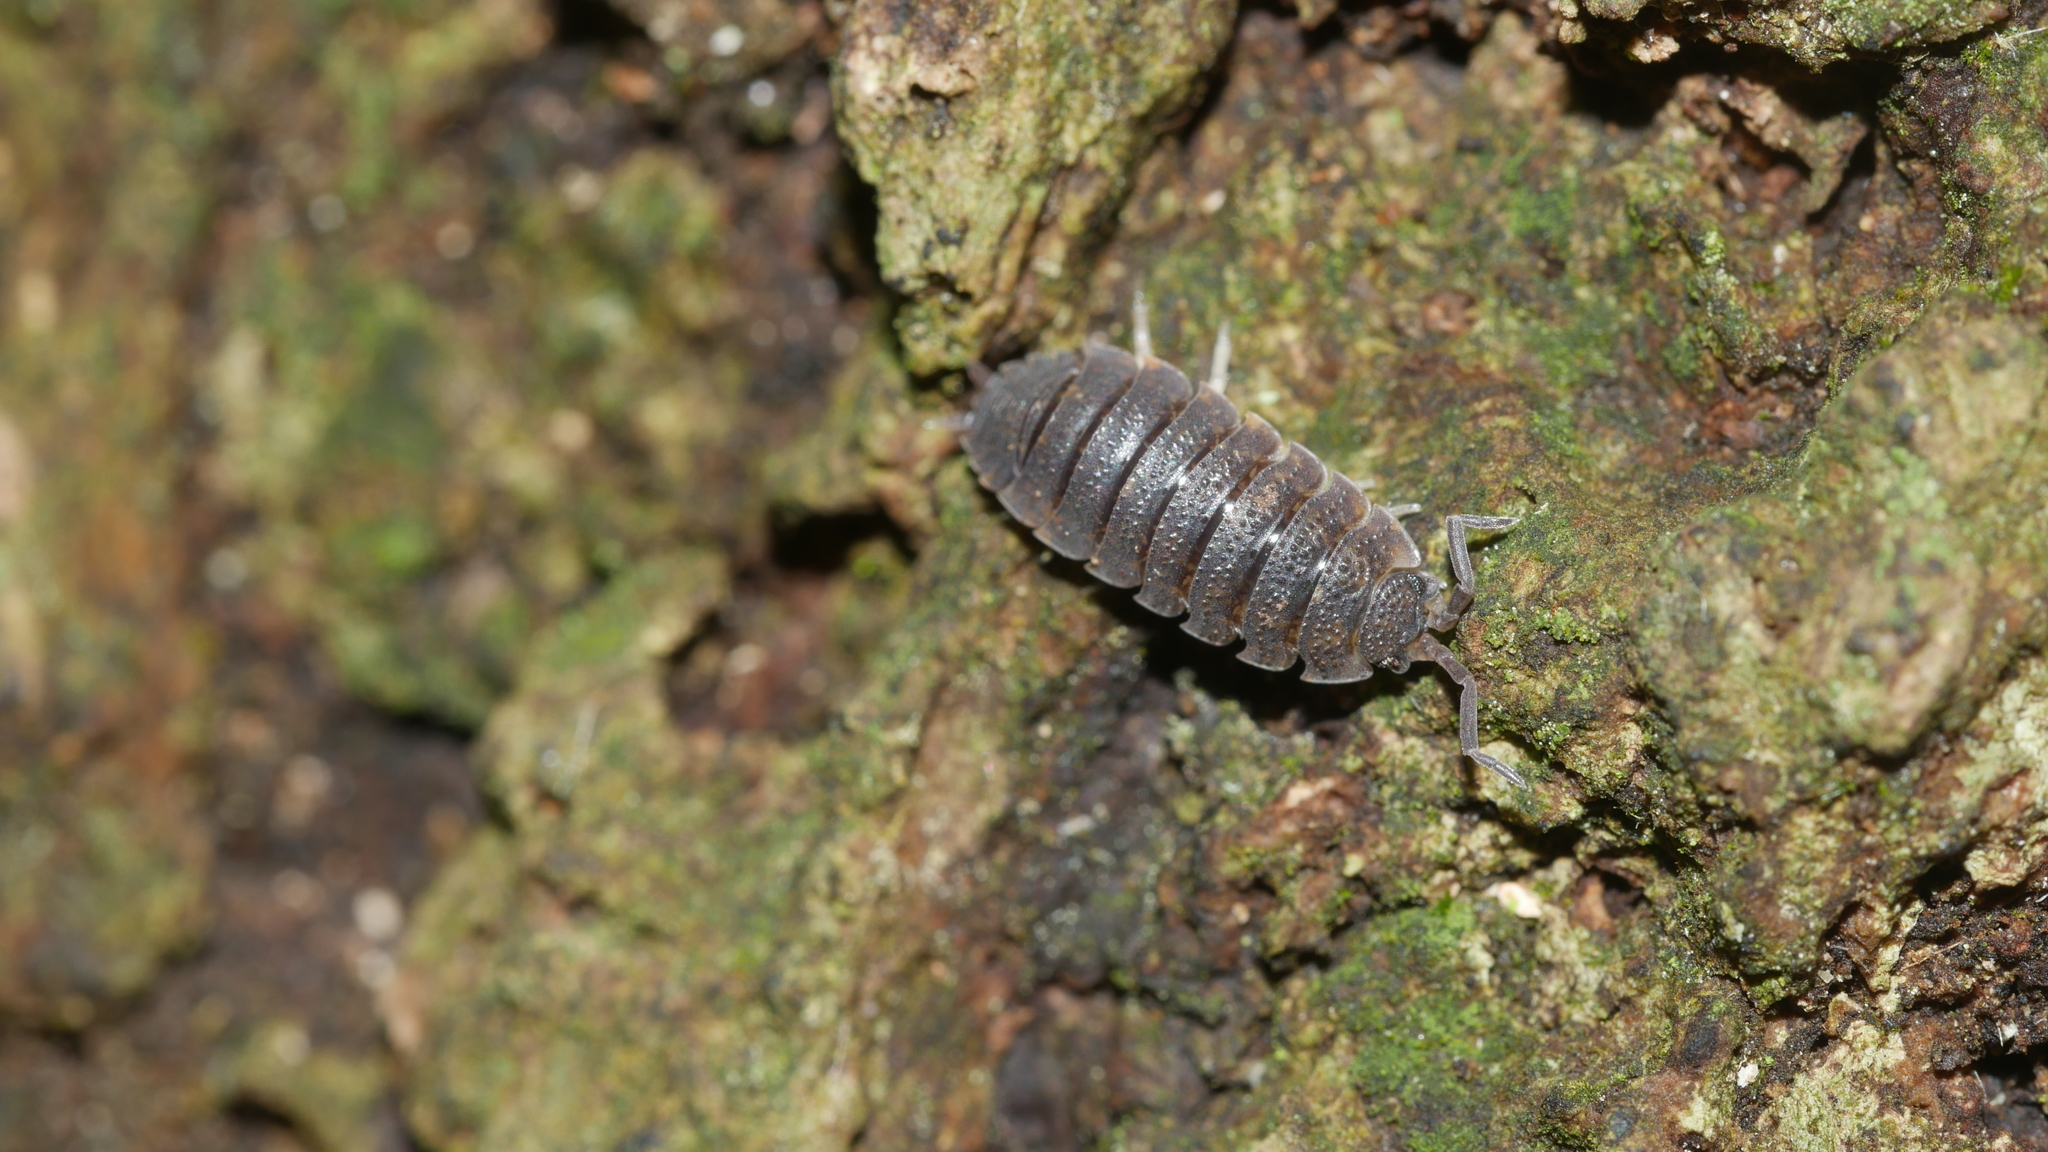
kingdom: Animalia
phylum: Arthropoda
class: Malacostraca
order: Isopoda
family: Porcellionidae
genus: Porcellio
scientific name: Porcellio scaber
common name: Common rough woodlouse
